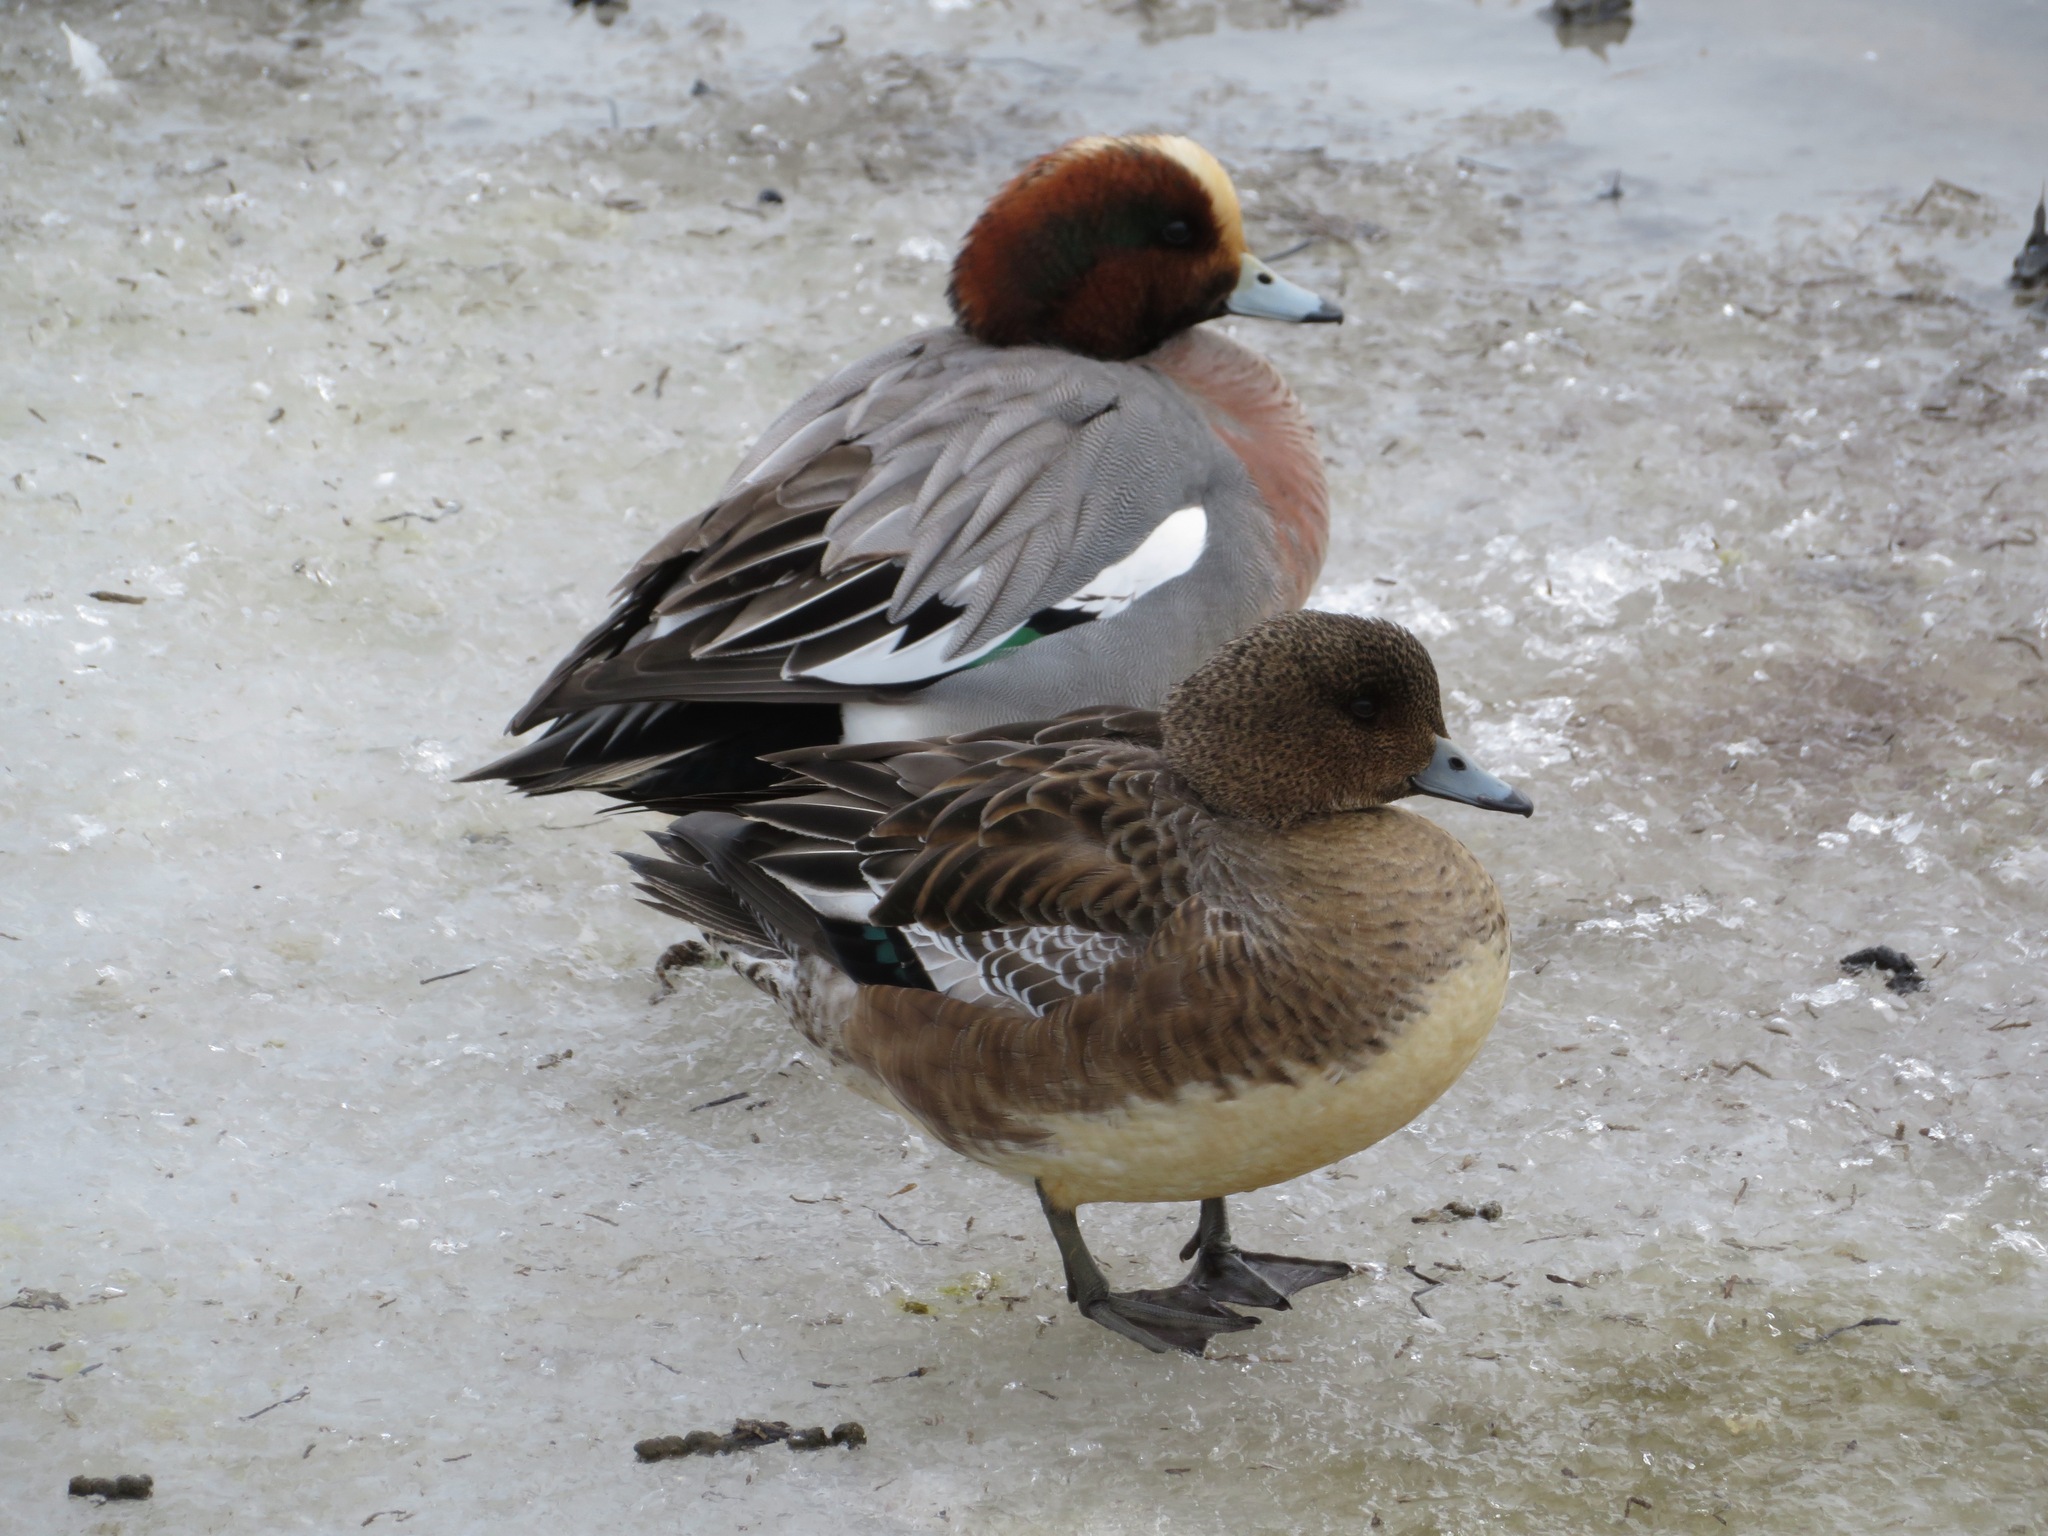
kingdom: Animalia
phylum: Chordata
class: Aves
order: Anseriformes
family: Anatidae
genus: Mareca
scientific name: Mareca penelope
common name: Eurasian wigeon
